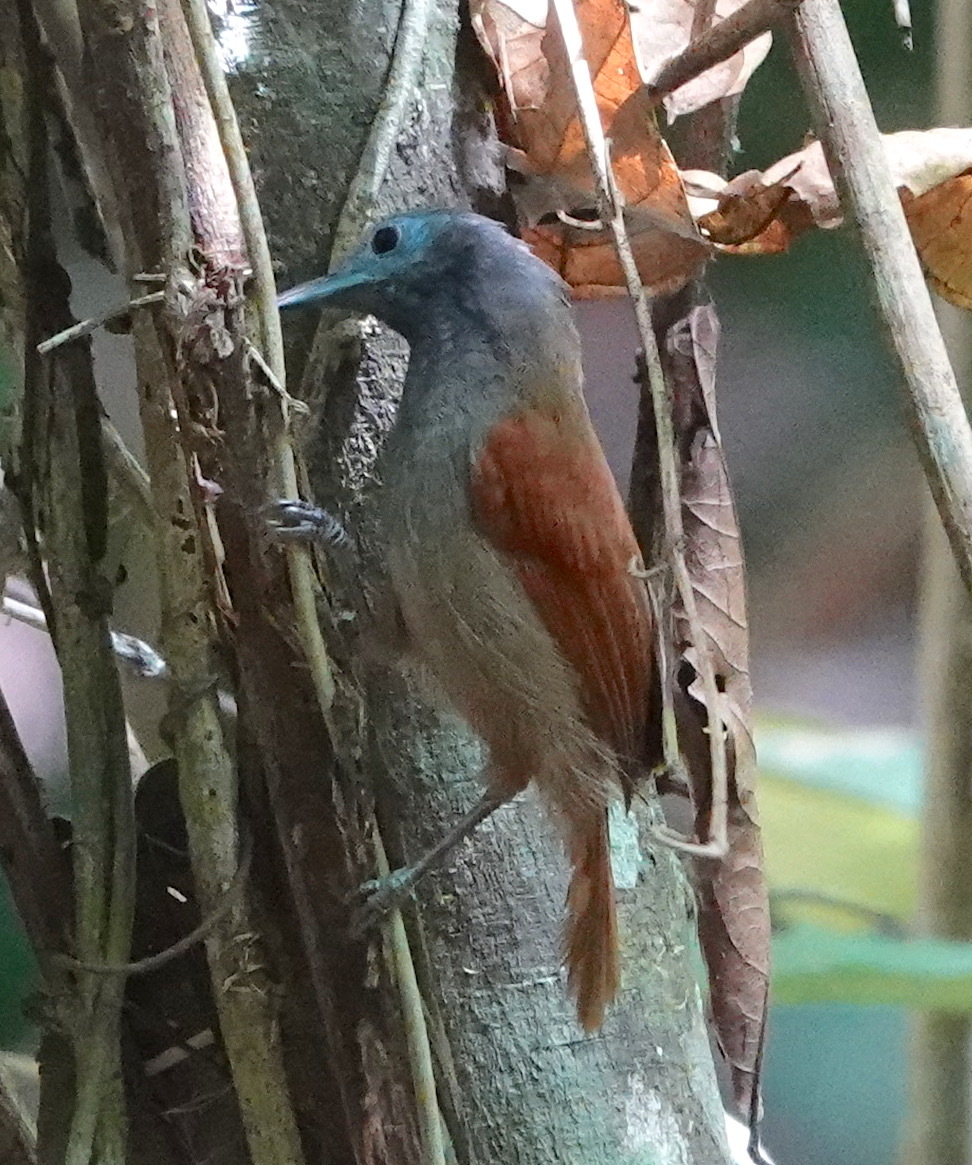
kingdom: Animalia
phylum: Chordata
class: Aves
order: Passeriformes
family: Timaliidae
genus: Stachyris
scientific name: Stachyris erythroptera
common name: Chestnut-winged babbler
